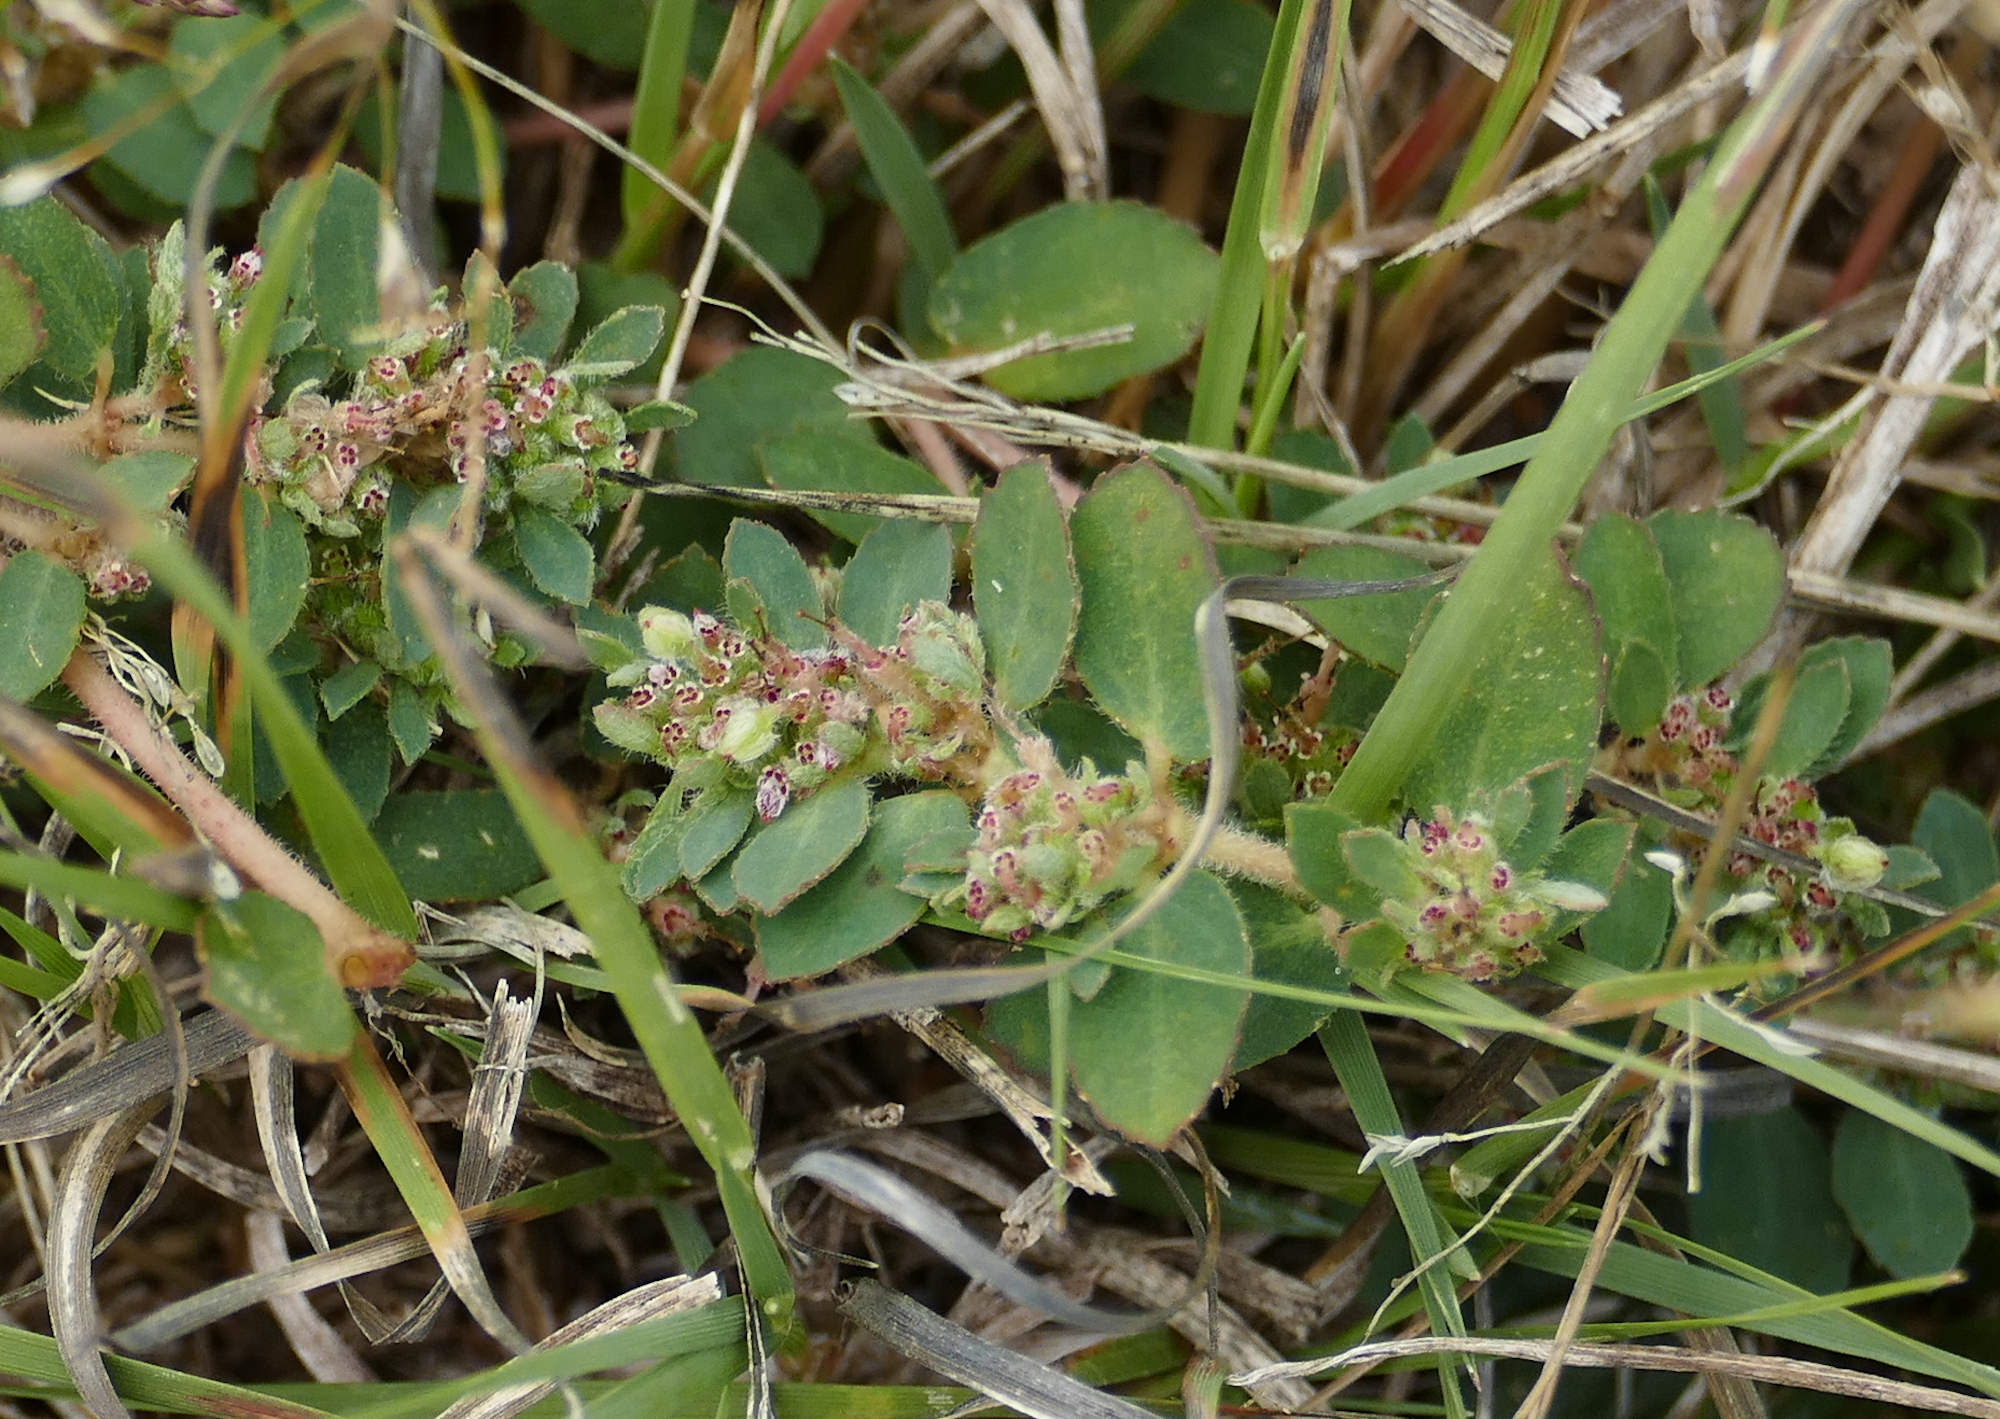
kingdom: Plantae
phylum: Tracheophyta
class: Magnoliopsida
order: Malpighiales
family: Euphorbiaceae
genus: Euphorbia
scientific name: Euphorbia stictospora
